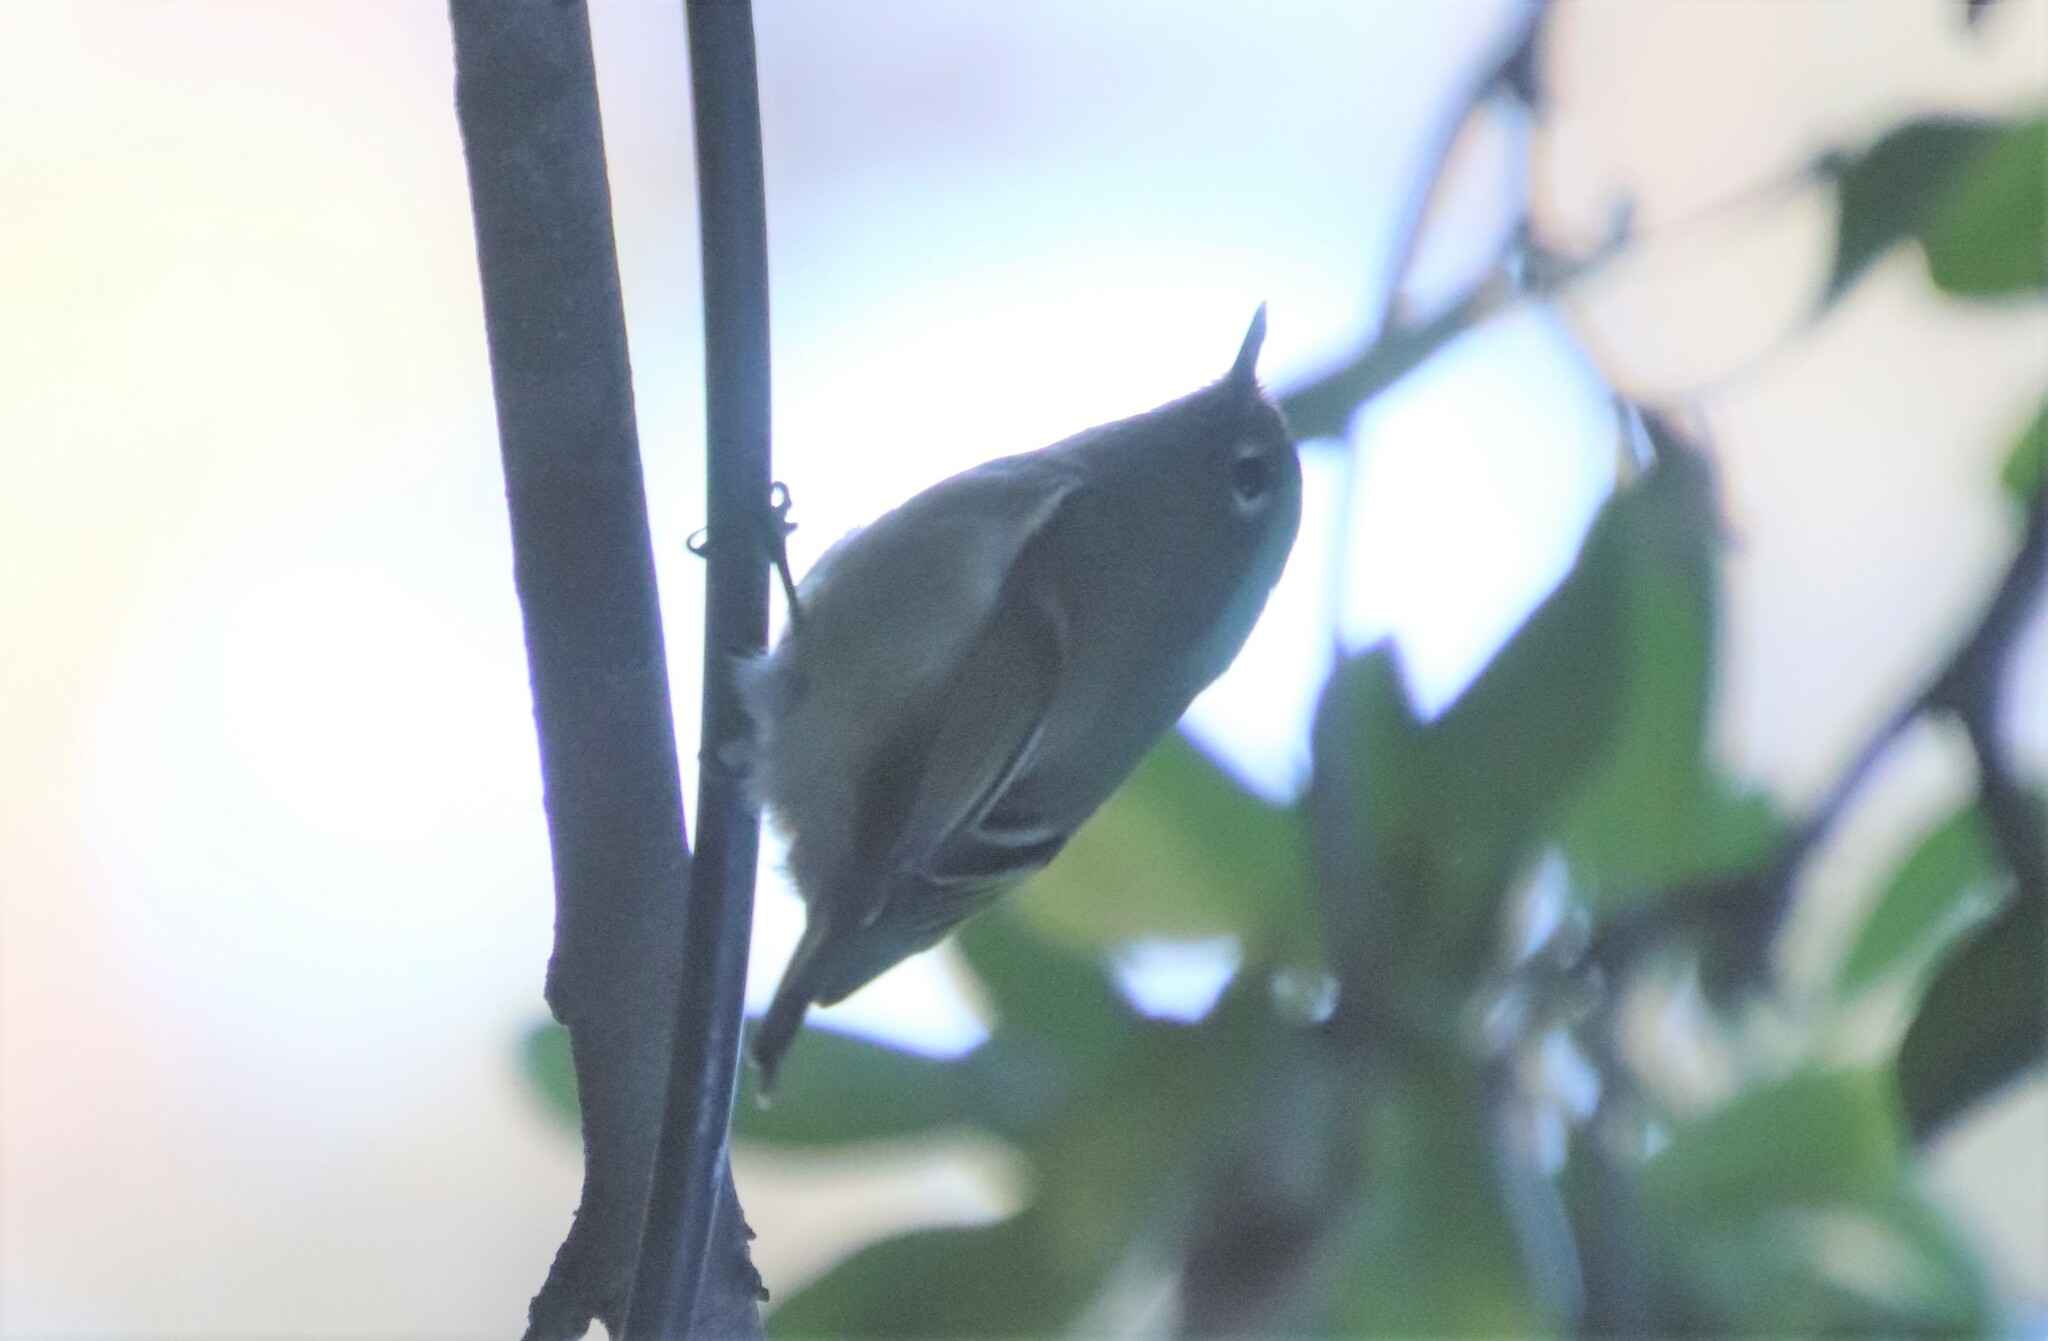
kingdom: Animalia
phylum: Chordata
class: Aves
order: Passeriformes
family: Regulidae
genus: Regulus
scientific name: Regulus calendula
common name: Ruby-crowned kinglet
